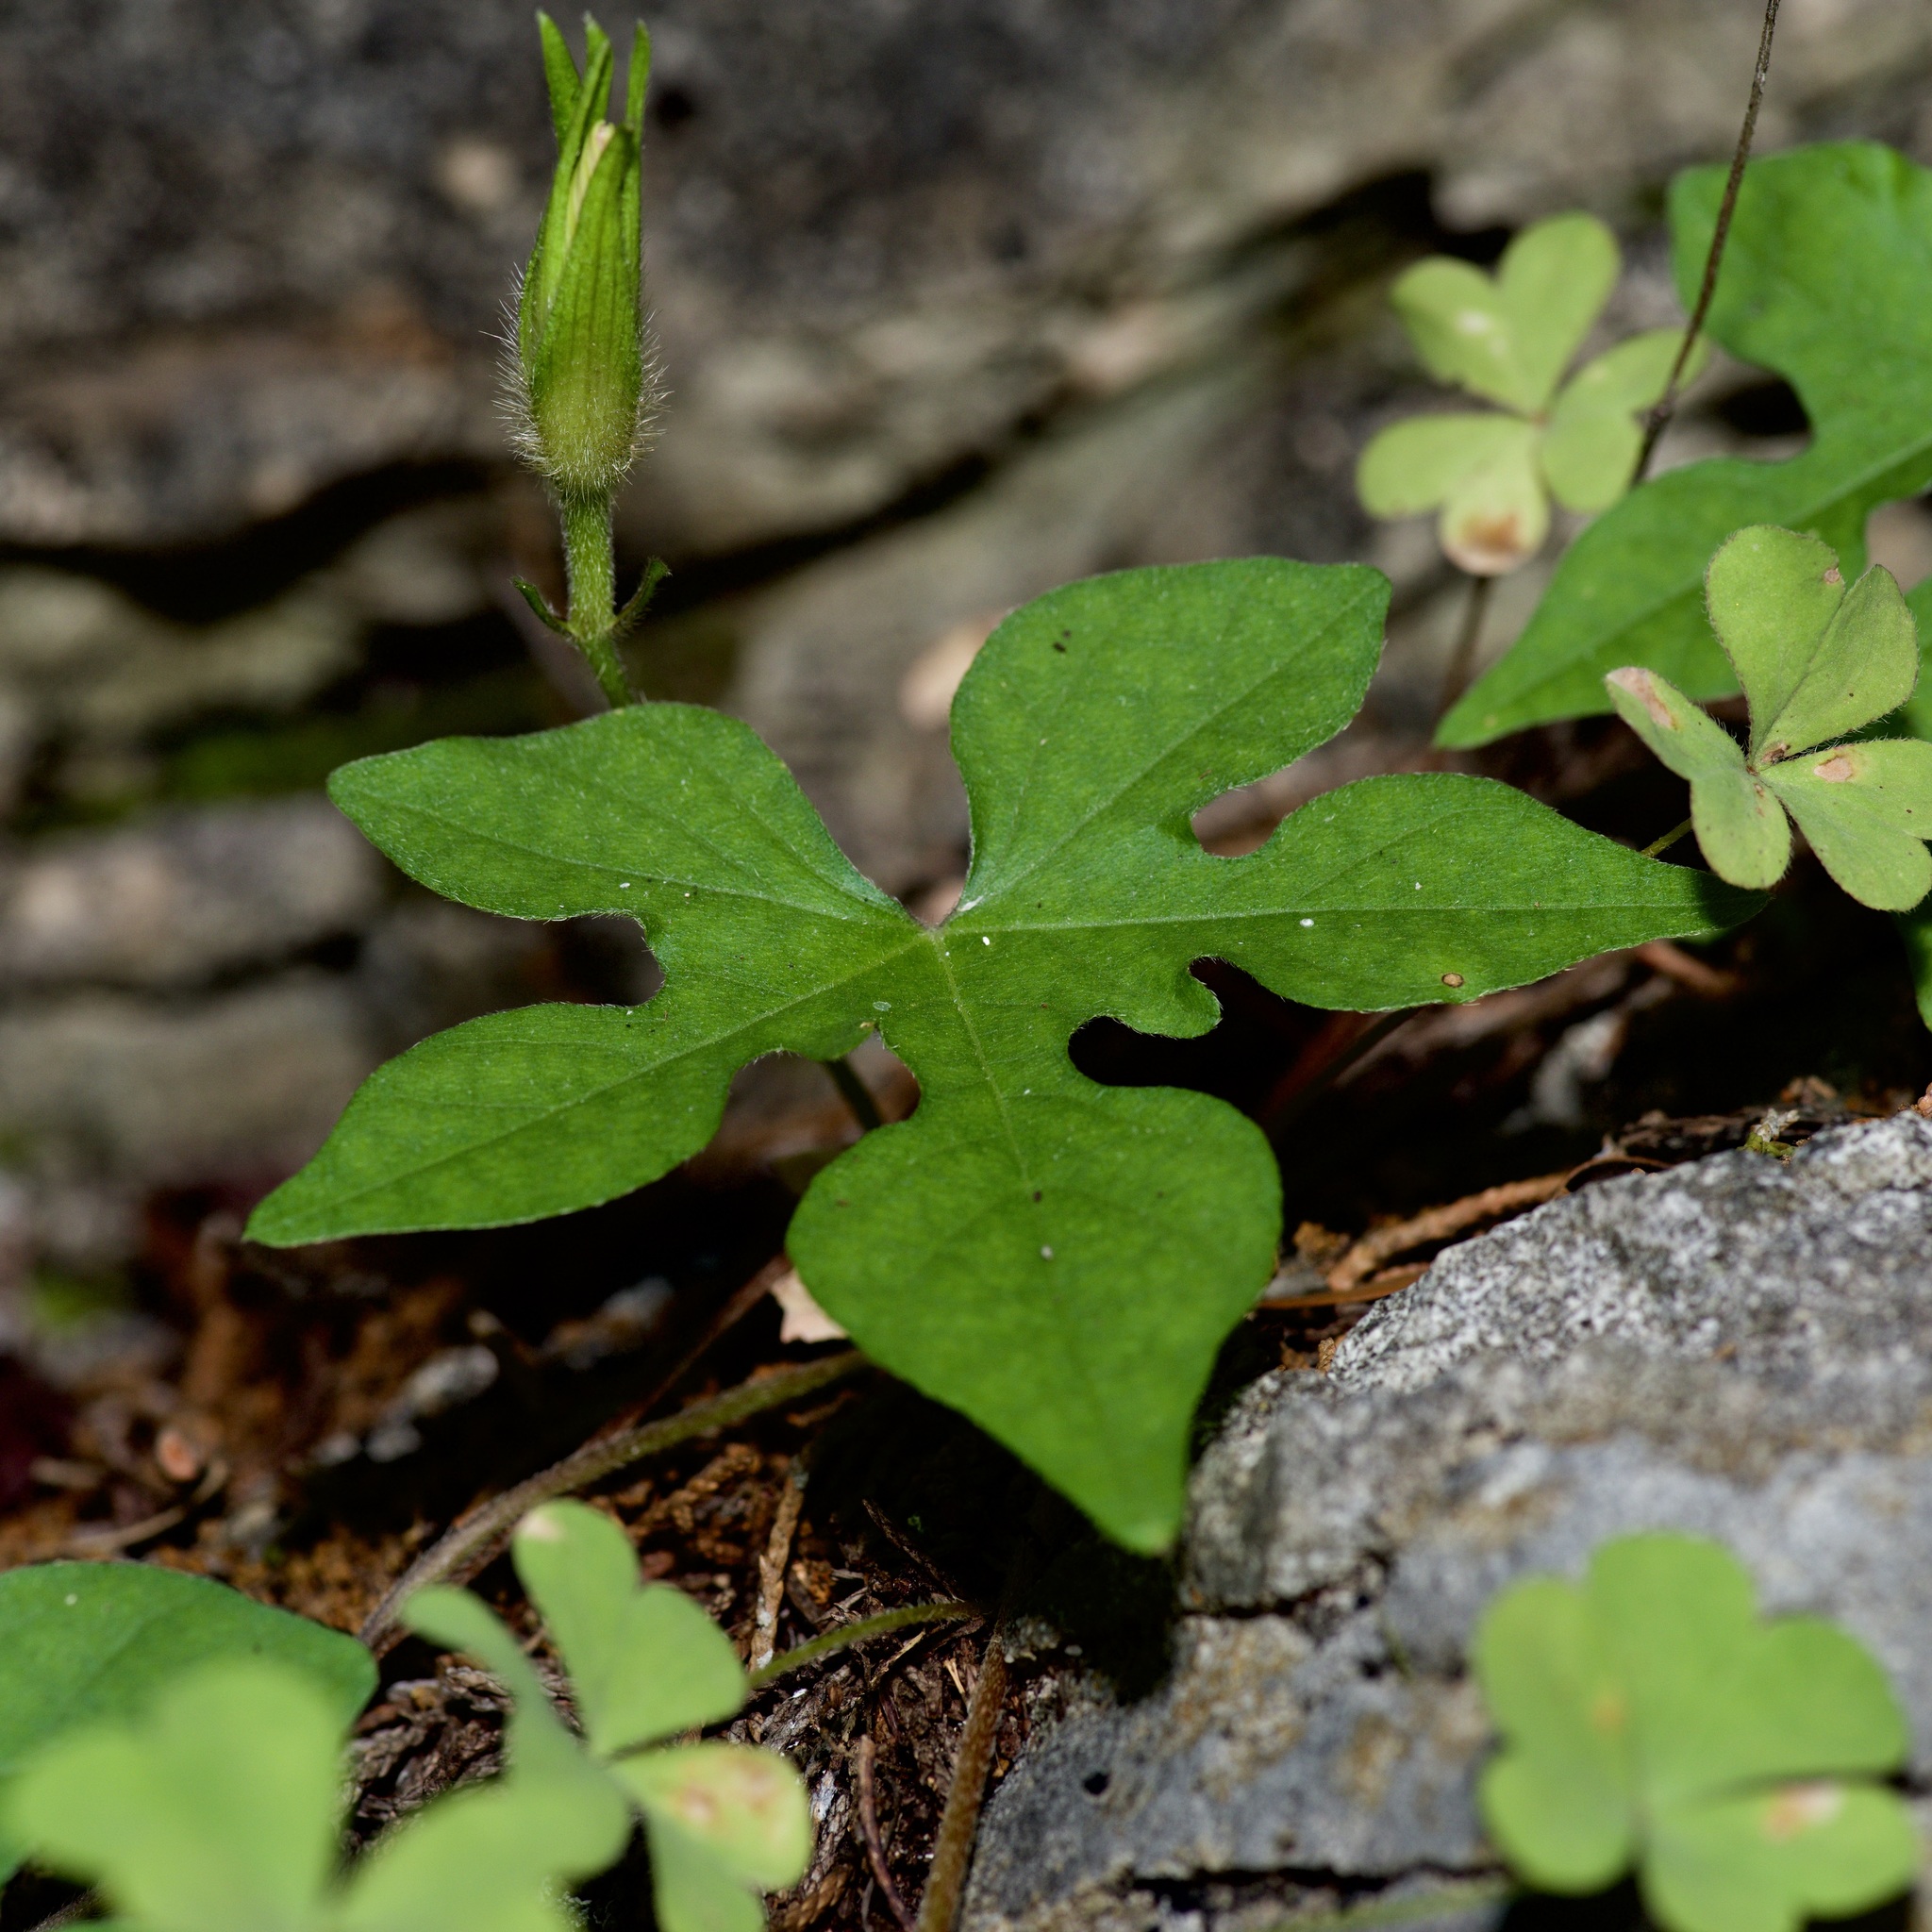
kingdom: Plantae
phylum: Tracheophyta
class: Magnoliopsida
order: Solanales
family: Convolvulaceae
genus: Ipomoea
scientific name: Ipomoea lindheimeri
